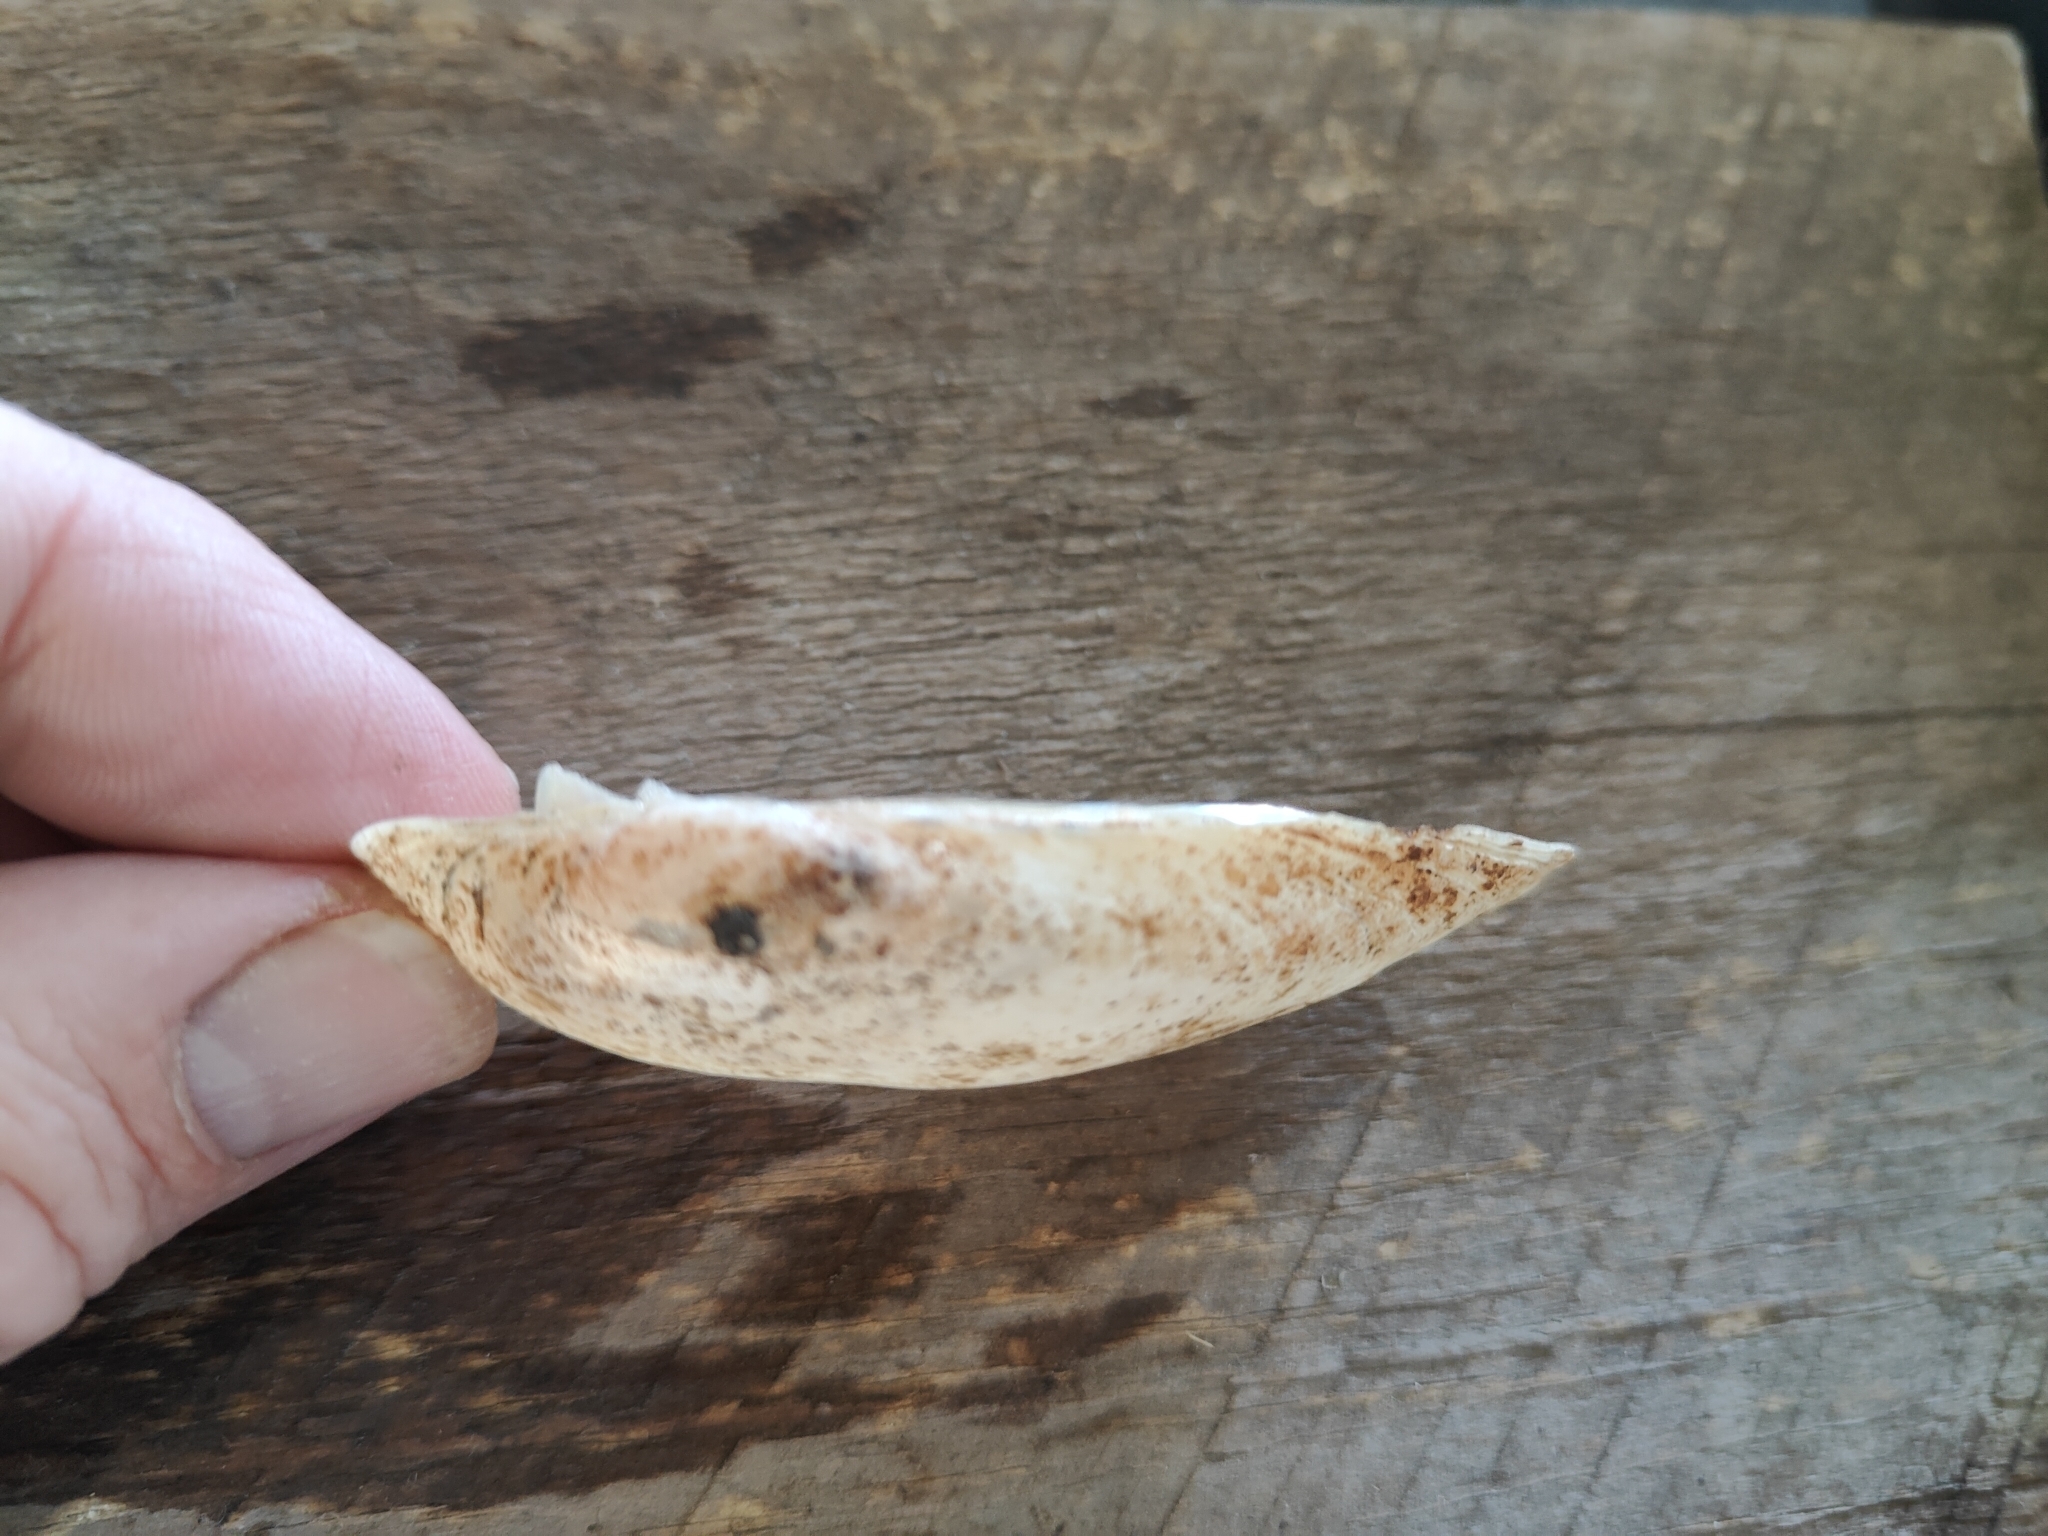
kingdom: Animalia
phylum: Mollusca
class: Bivalvia
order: Unionida
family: Unionidae
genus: Lampsilis
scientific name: Lampsilis teres
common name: Yellow sandshell
